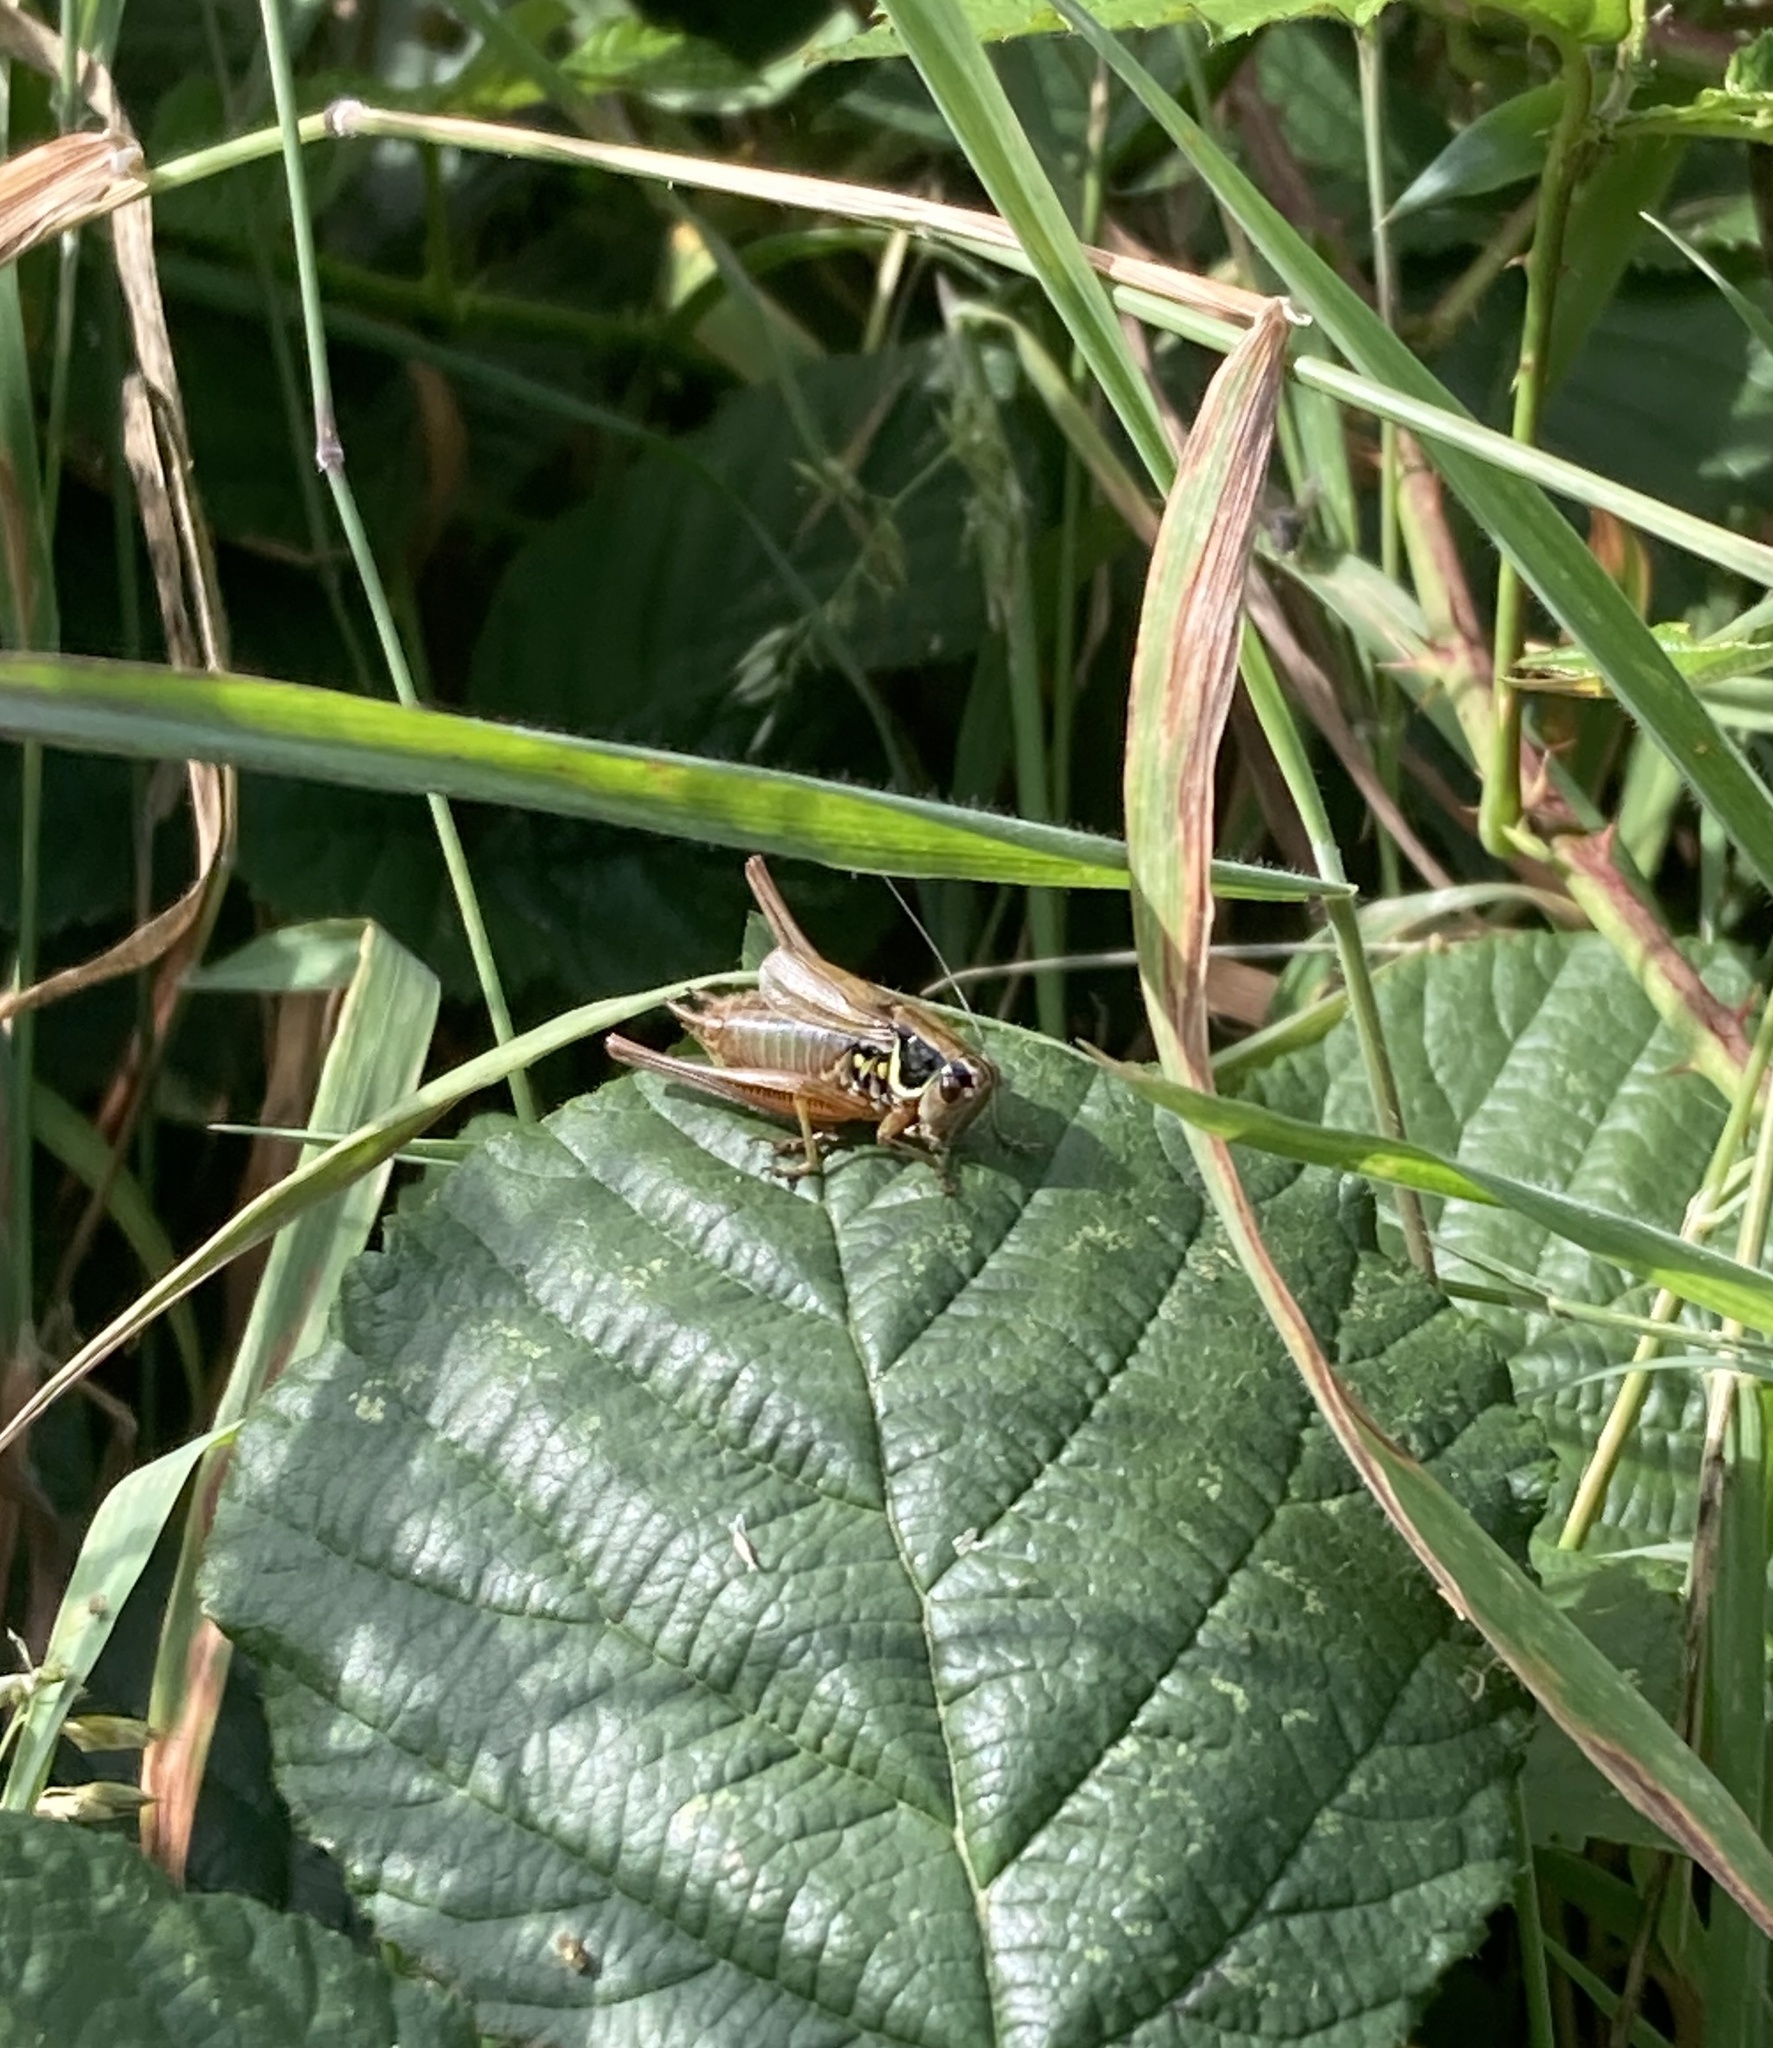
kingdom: Animalia
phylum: Arthropoda
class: Insecta
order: Orthoptera
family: Tettigoniidae
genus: Roeseliana
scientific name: Roeseliana roeselii
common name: Roesel's bush cricket
